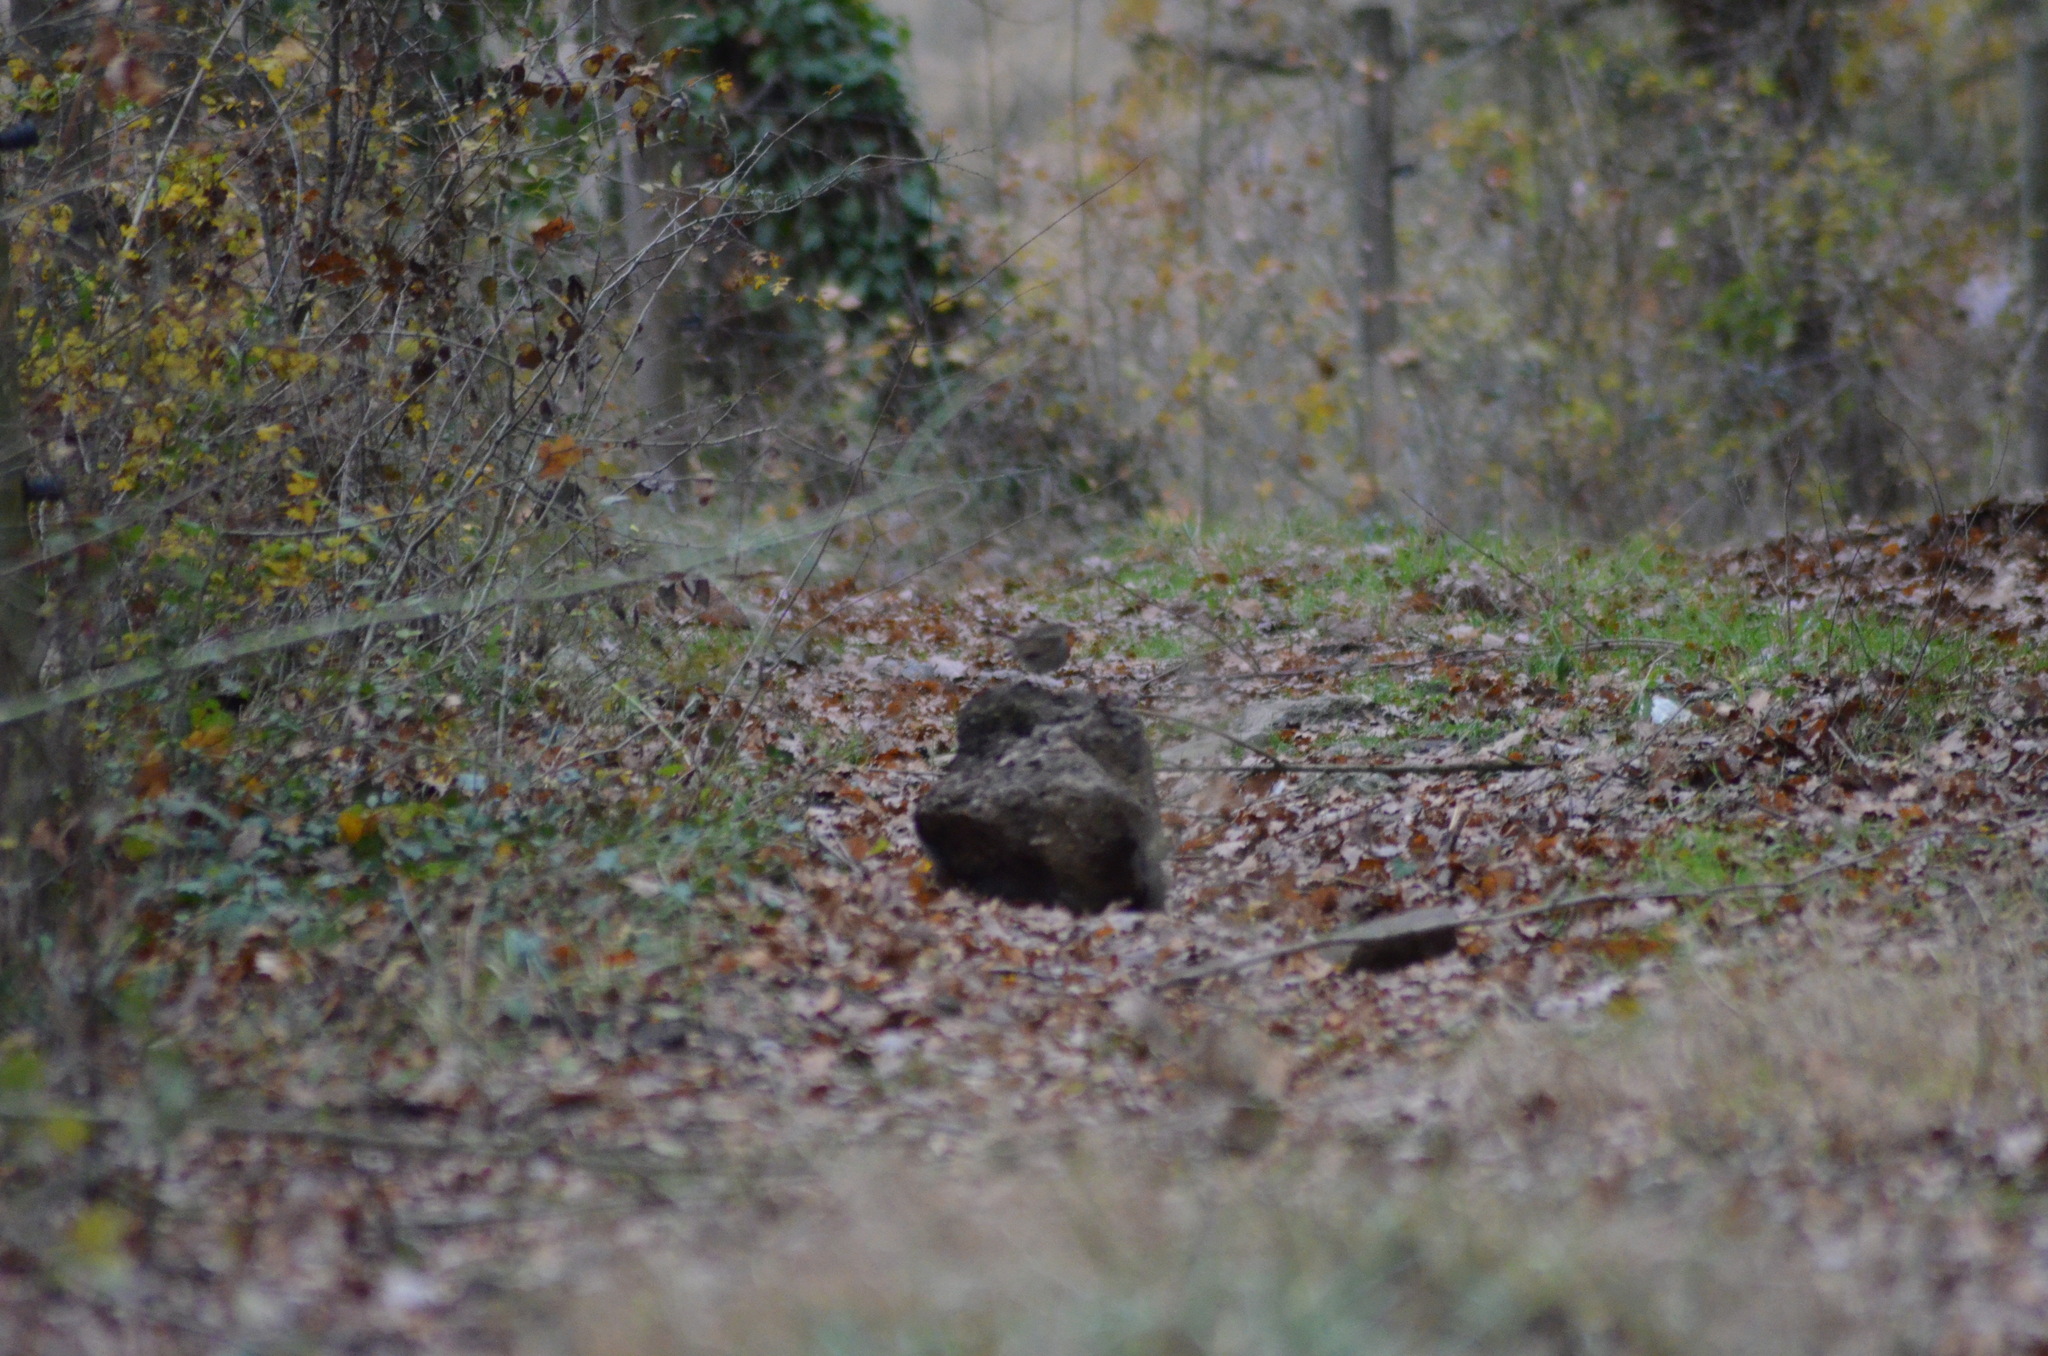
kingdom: Animalia
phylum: Chordata
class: Aves
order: Passeriformes
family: Muscicapidae
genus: Erithacus
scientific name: Erithacus rubecula
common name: European robin
